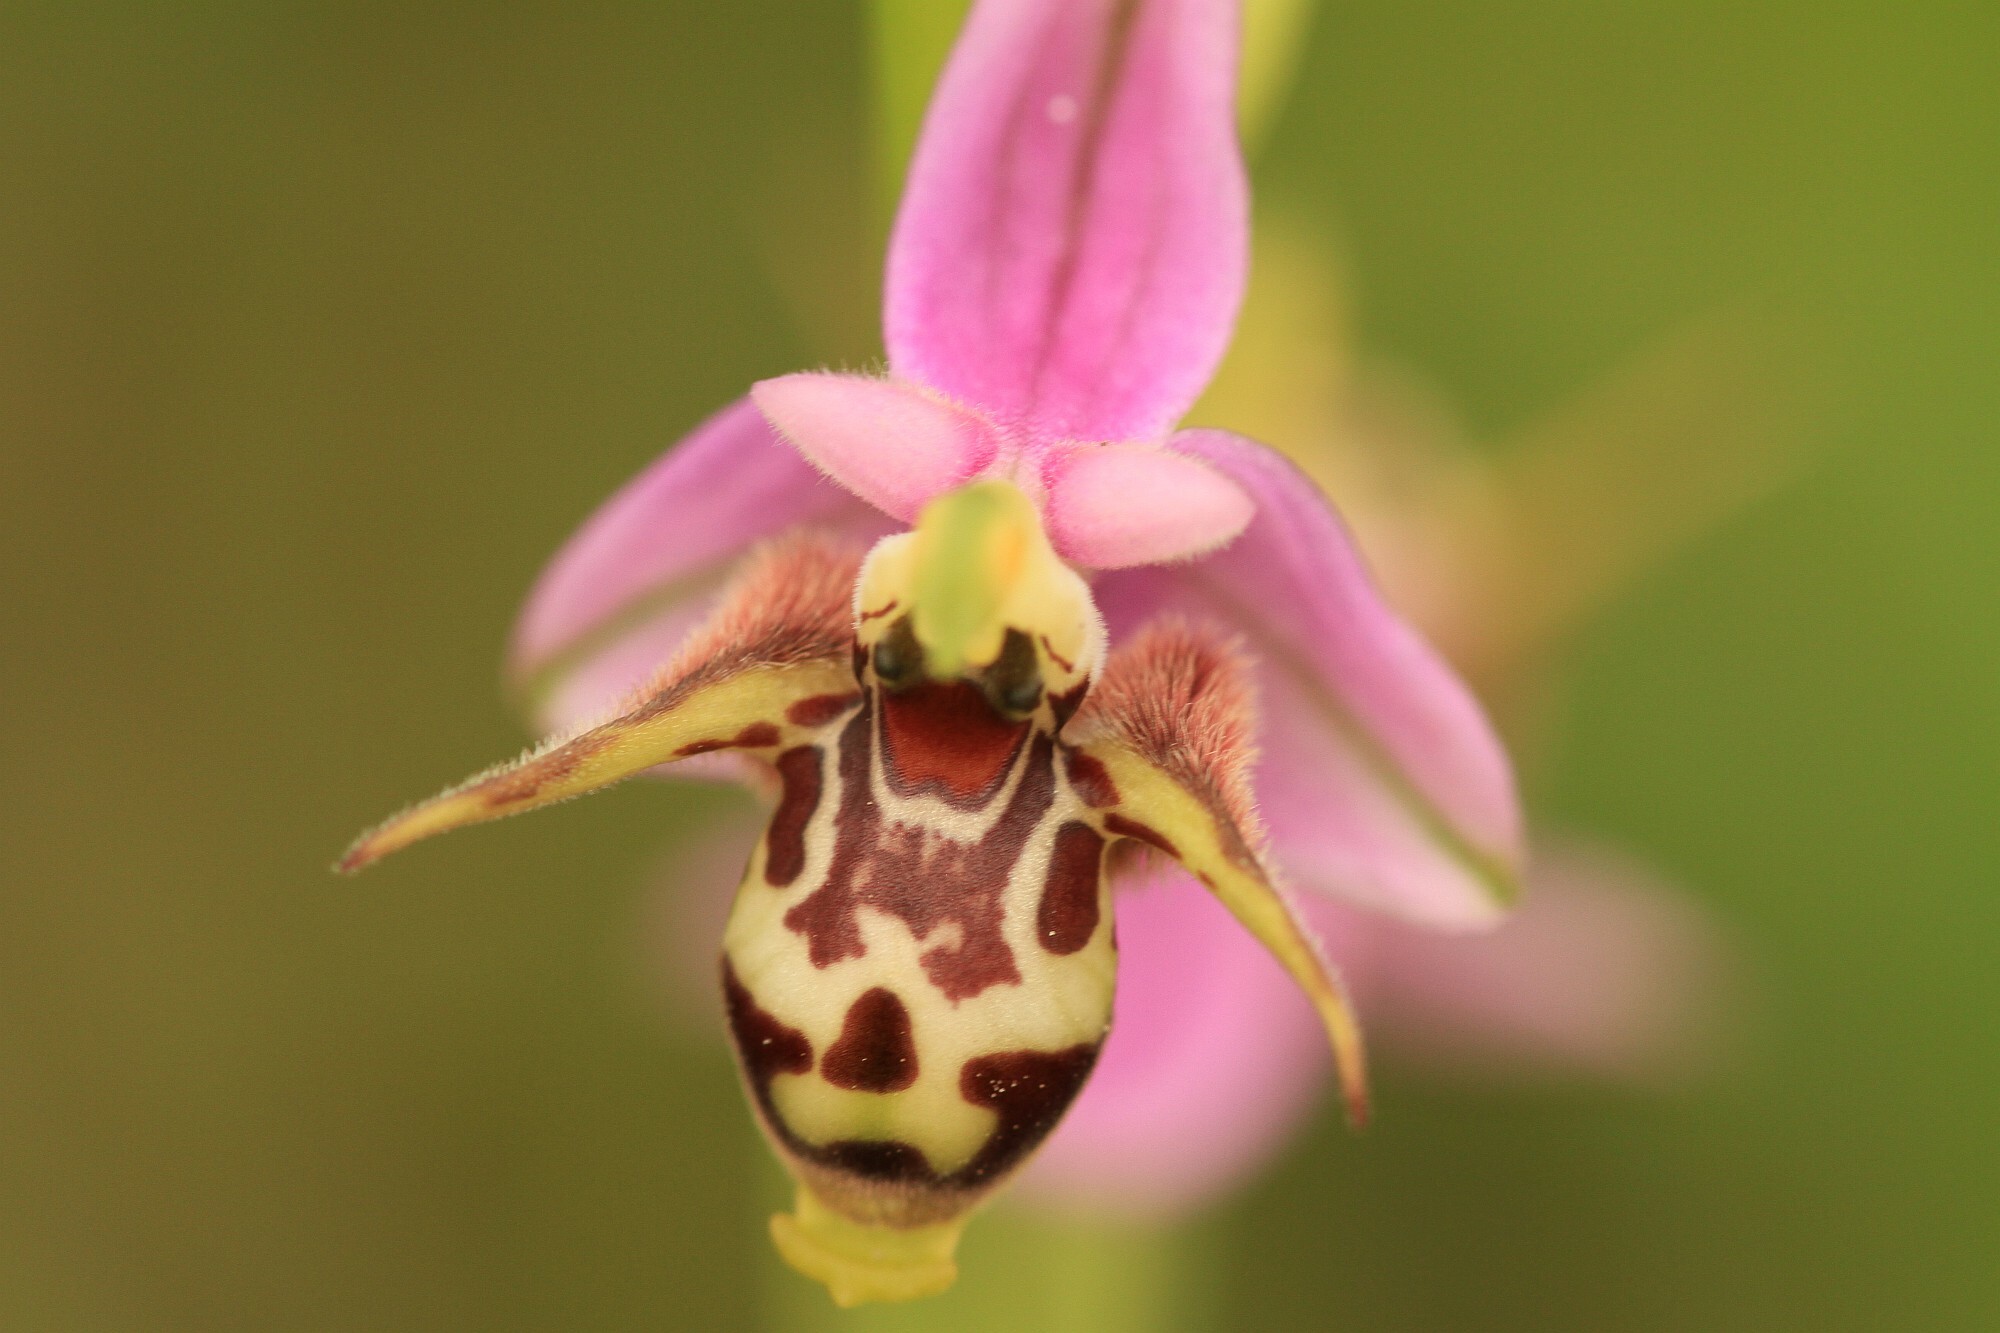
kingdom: Plantae
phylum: Tracheophyta
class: Liliopsida
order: Asparagales
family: Orchidaceae
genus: Ophrys
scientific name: Ophrys
